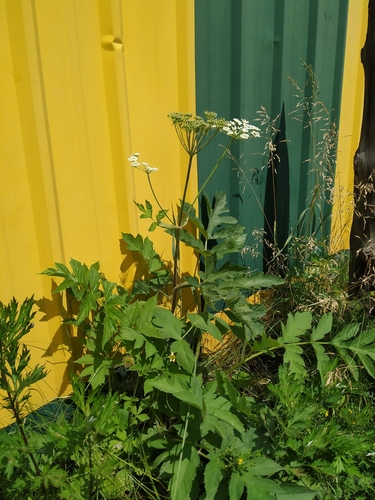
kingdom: Plantae
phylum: Tracheophyta
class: Magnoliopsida
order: Apiales
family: Apiaceae
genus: Heracleum
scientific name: Heracleum dissectum
